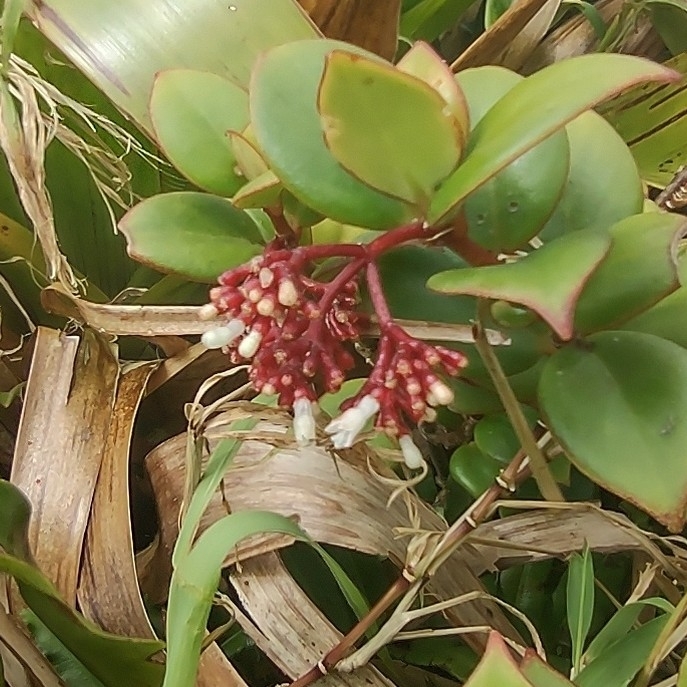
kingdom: Plantae
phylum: Tracheophyta
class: Magnoliopsida
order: Gentianales
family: Rubiaceae
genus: Notopleura
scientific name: Notopleura parasitica
